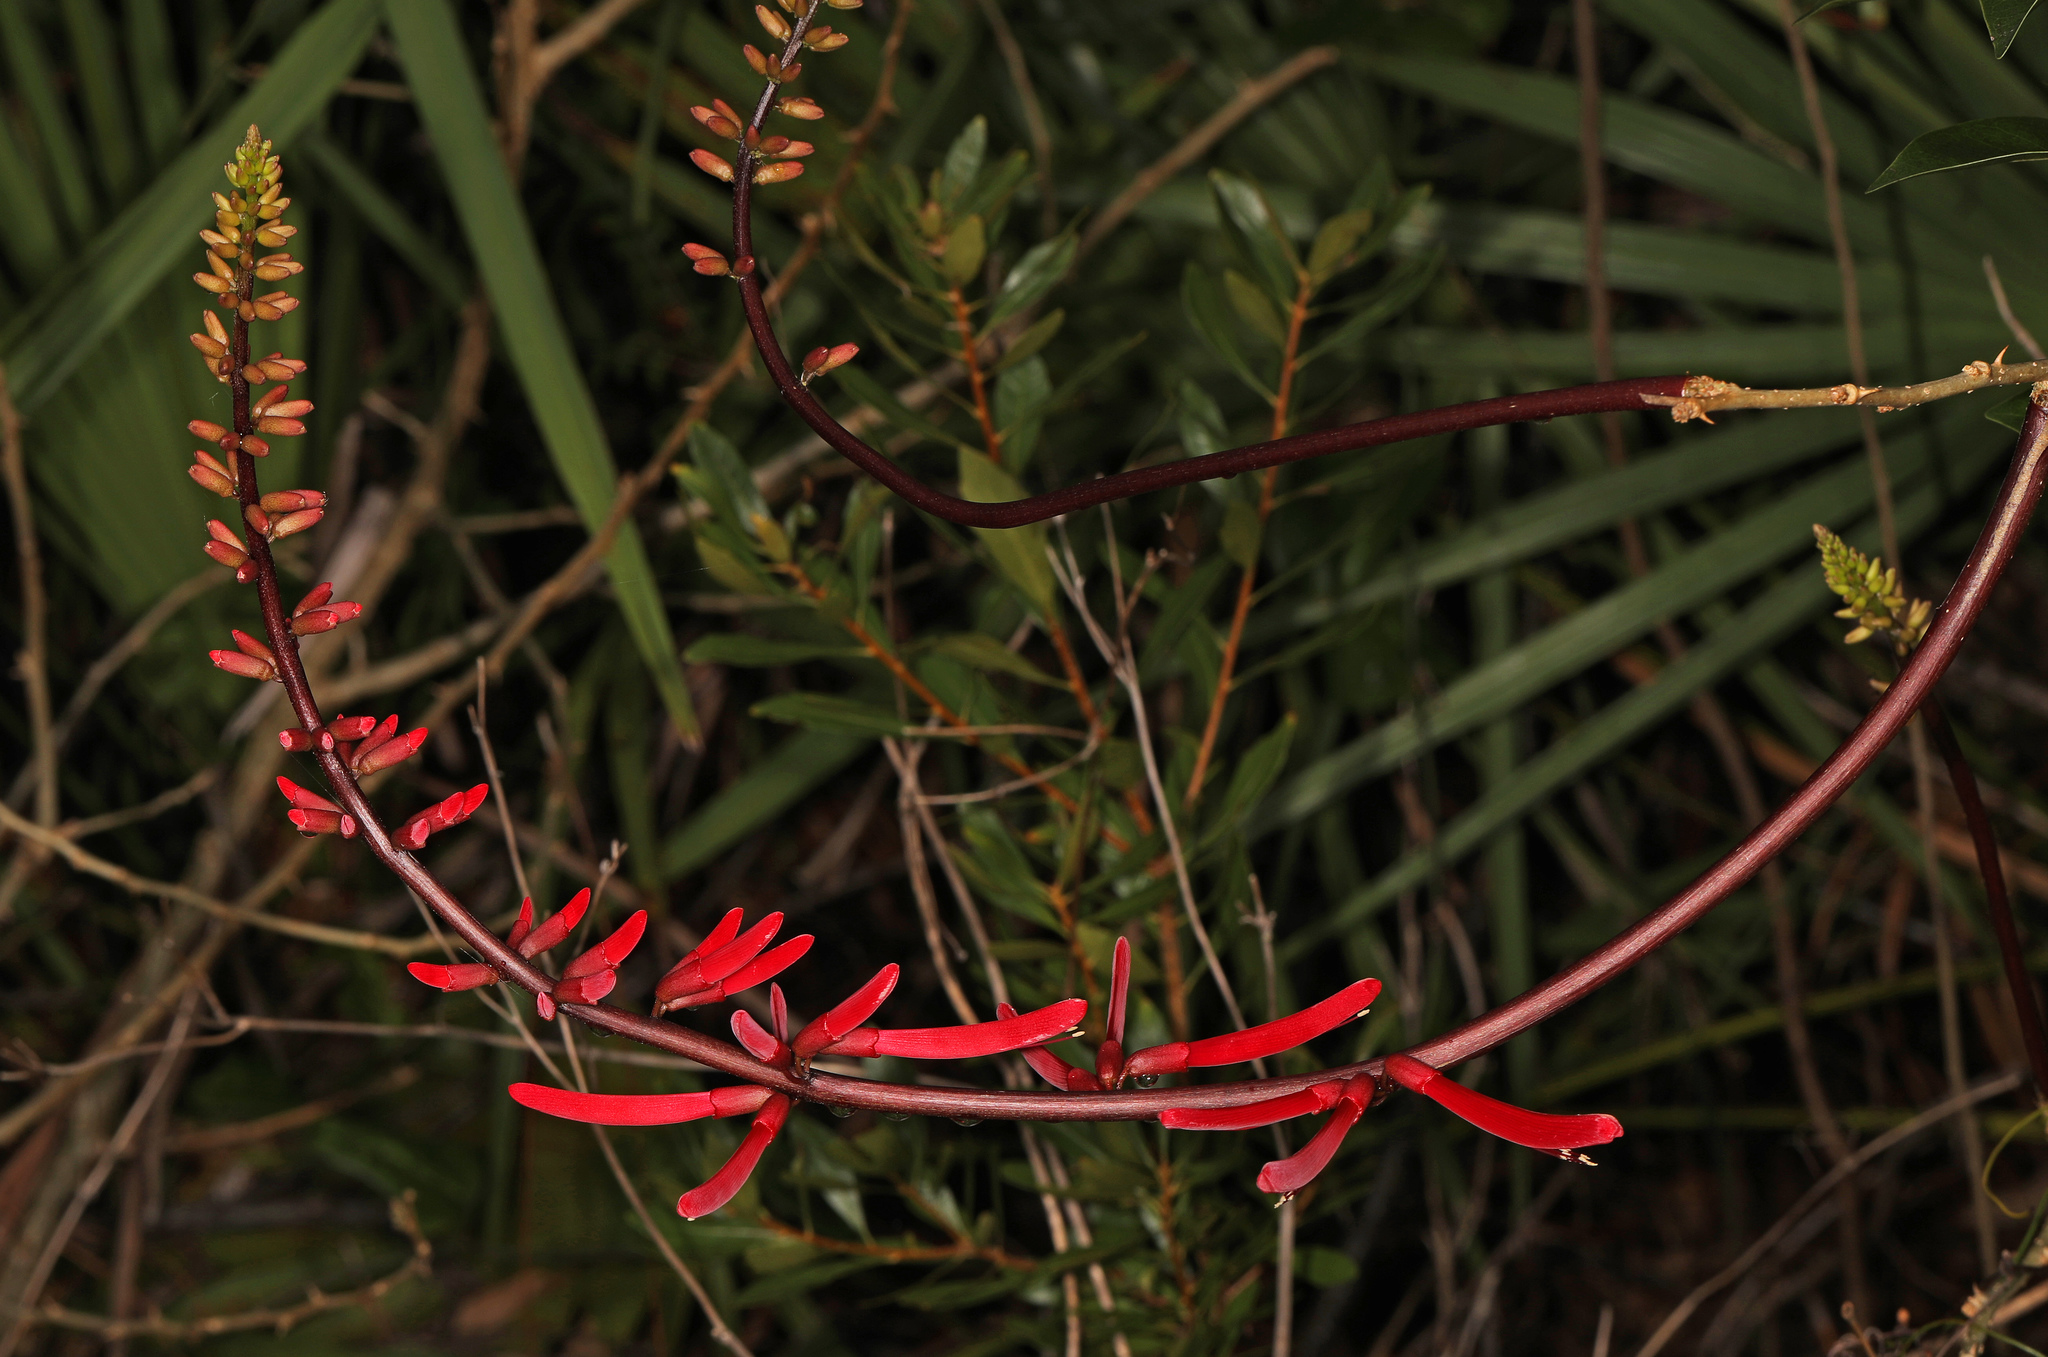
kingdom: Plantae
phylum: Tracheophyta
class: Magnoliopsida
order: Fabales
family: Fabaceae
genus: Erythrina
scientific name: Erythrina herbacea
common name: Coral-bean
